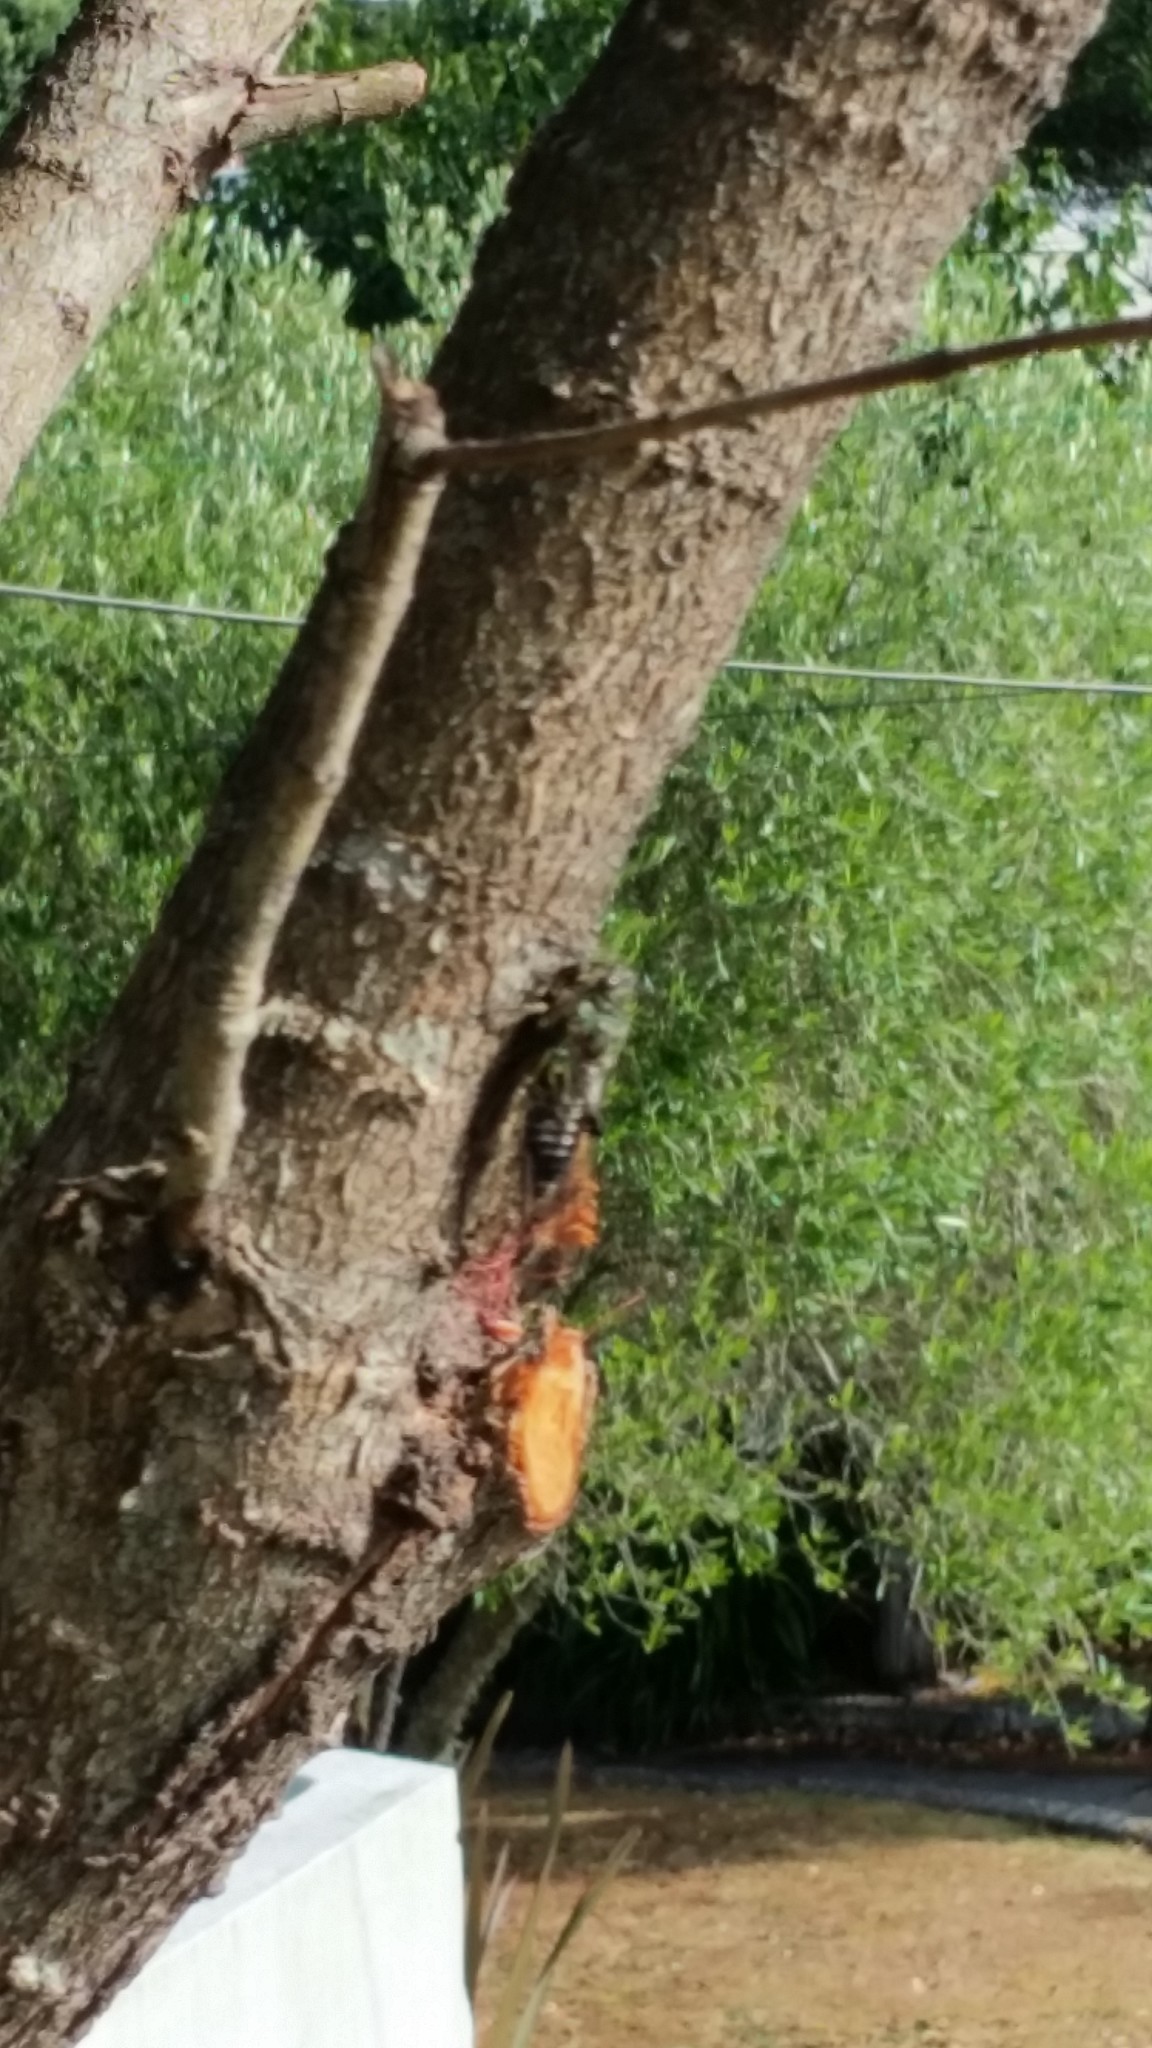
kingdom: Animalia
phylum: Arthropoda
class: Insecta
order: Hemiptera
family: Cicadidae
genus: Amphipsalta
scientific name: Amphipsalta zelandica
